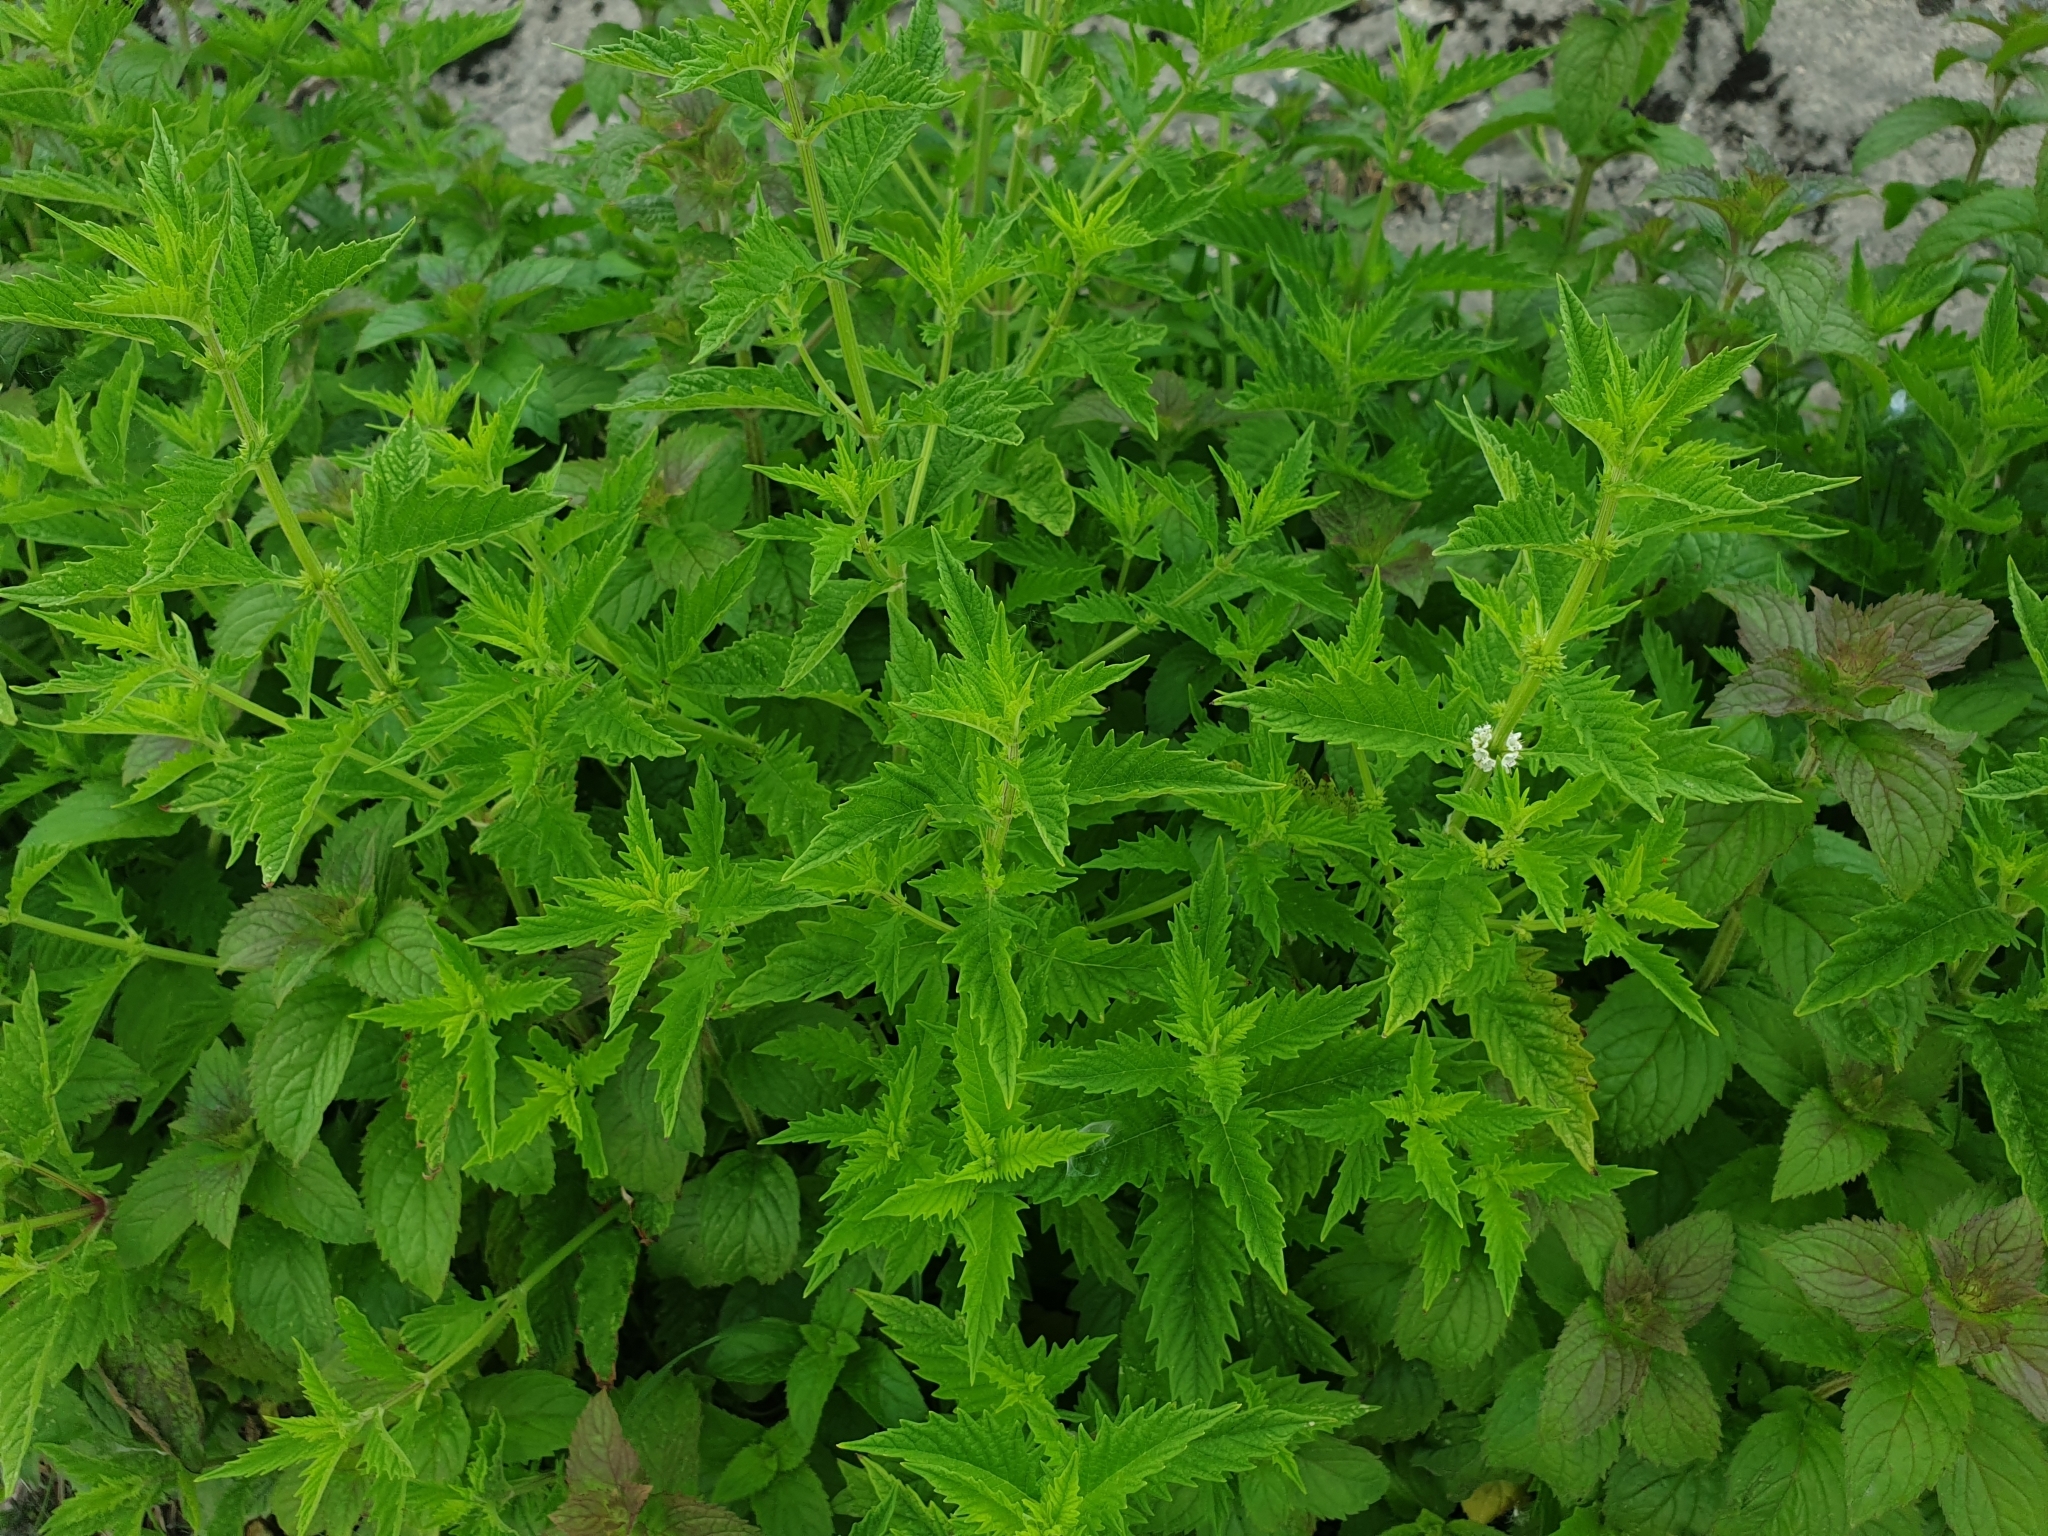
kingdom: Plantae
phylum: Tracheophyta
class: Magnoliopsida
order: Lamiales
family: Lamiaceae
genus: Lycopus
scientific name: Lycopus europaeus
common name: European bugleweed
